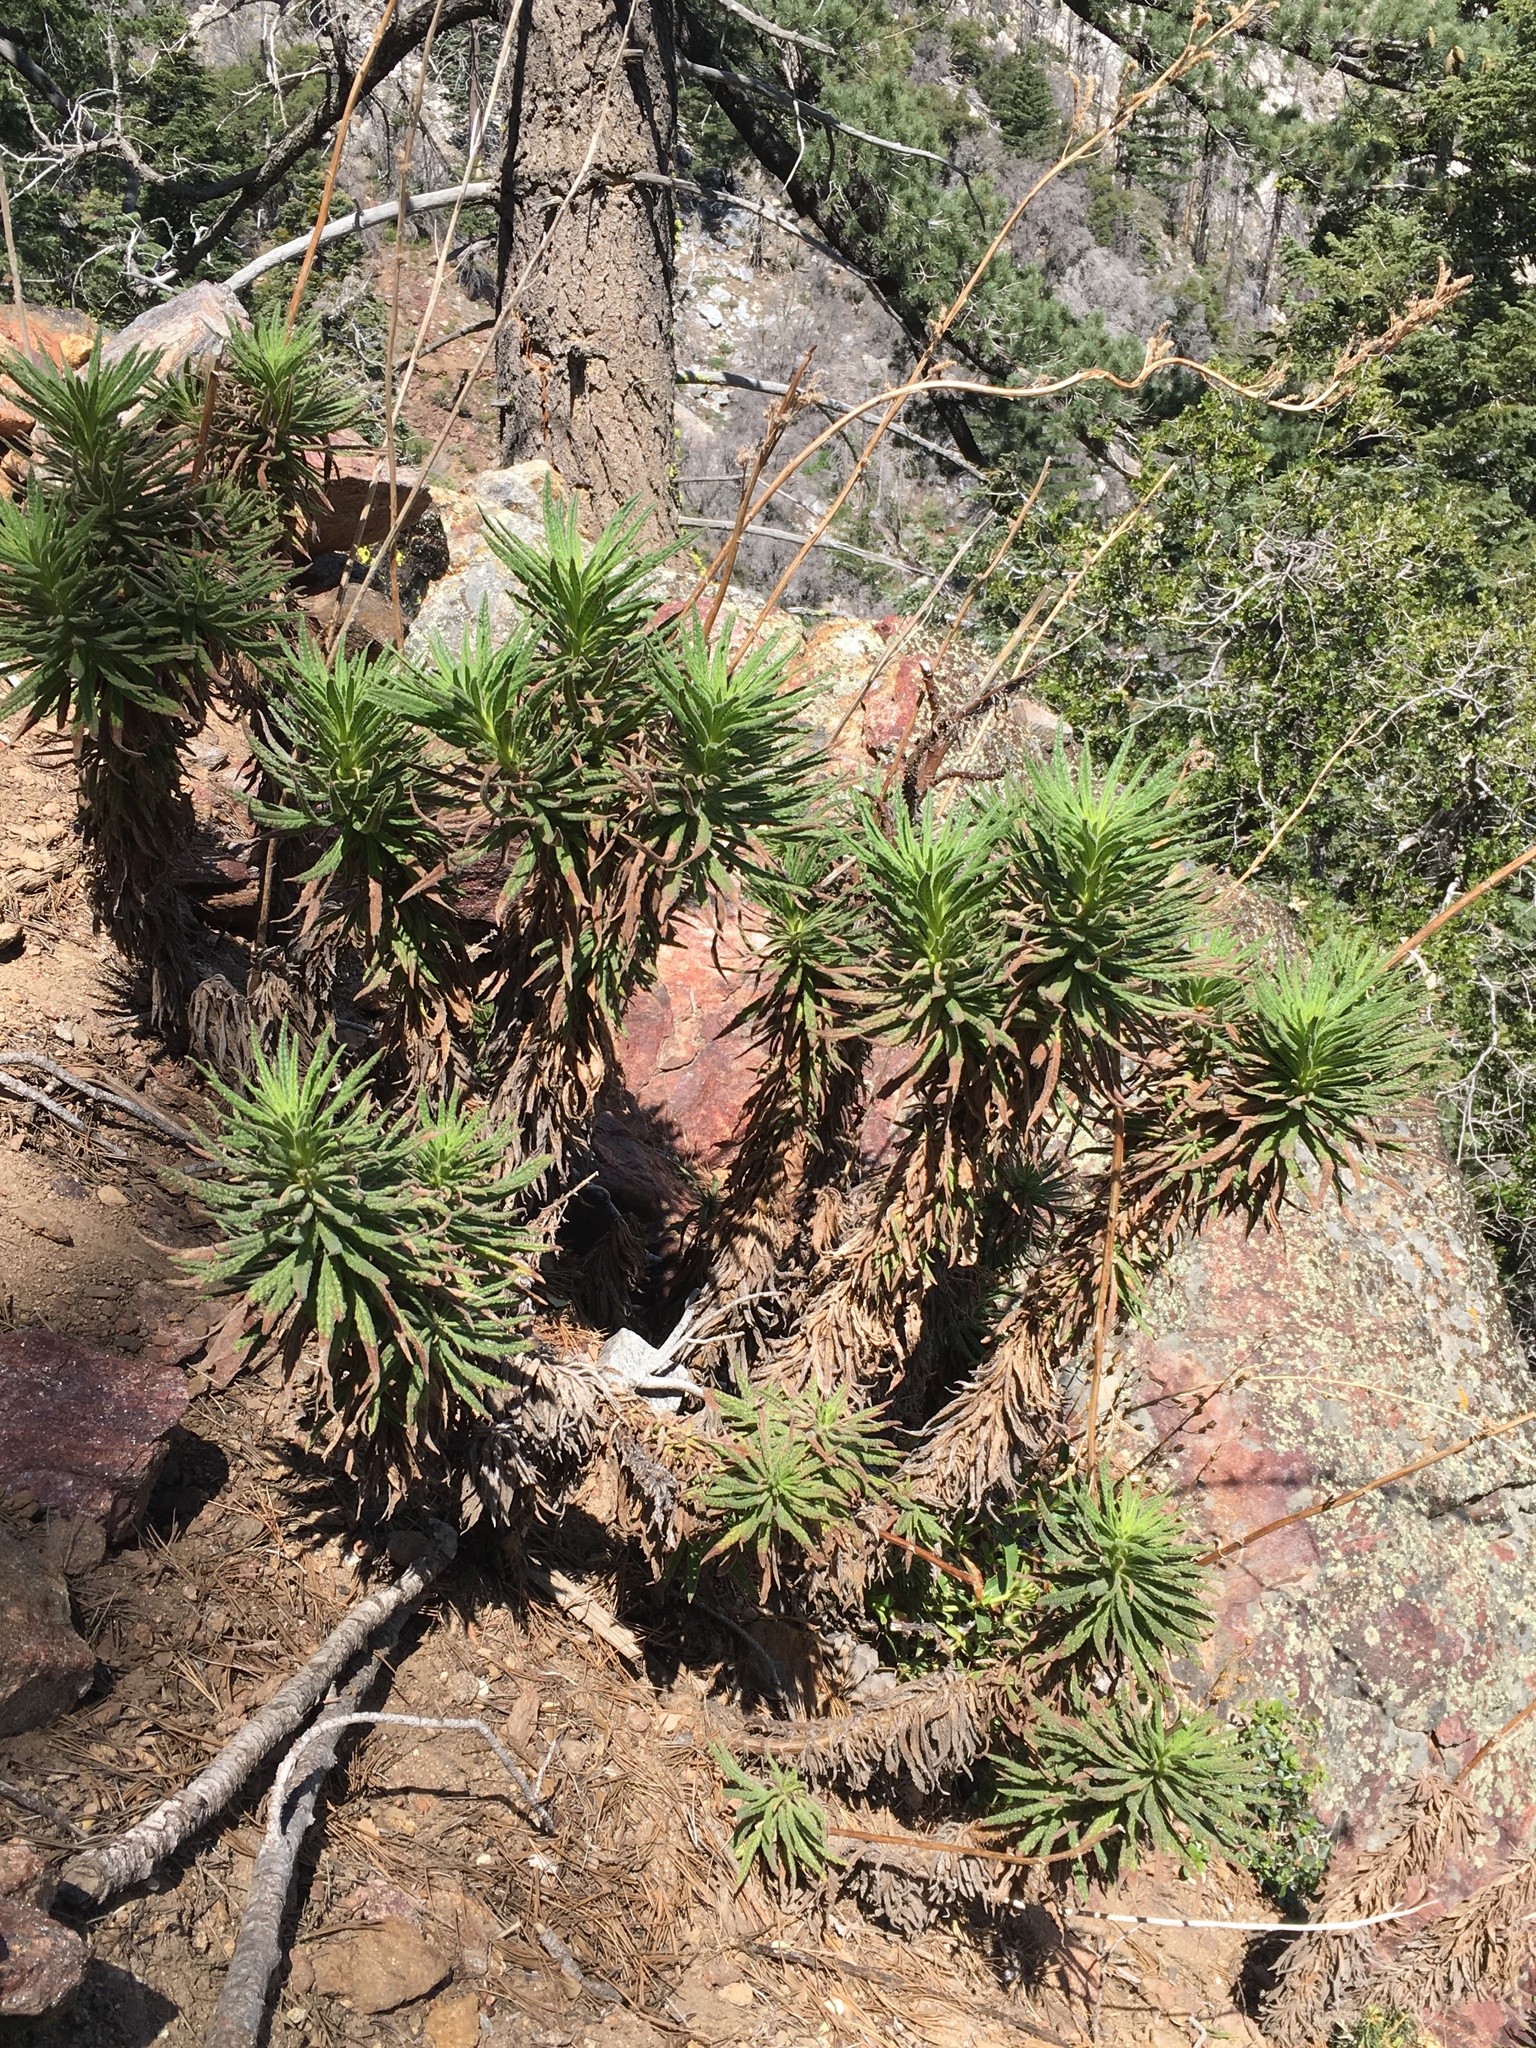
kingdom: Plantae
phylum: Tracheophyta
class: Magnoliopsida
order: Boraginales
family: Namaceae
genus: Turricula
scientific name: Turricula parryi
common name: Poodle-dog-bush
